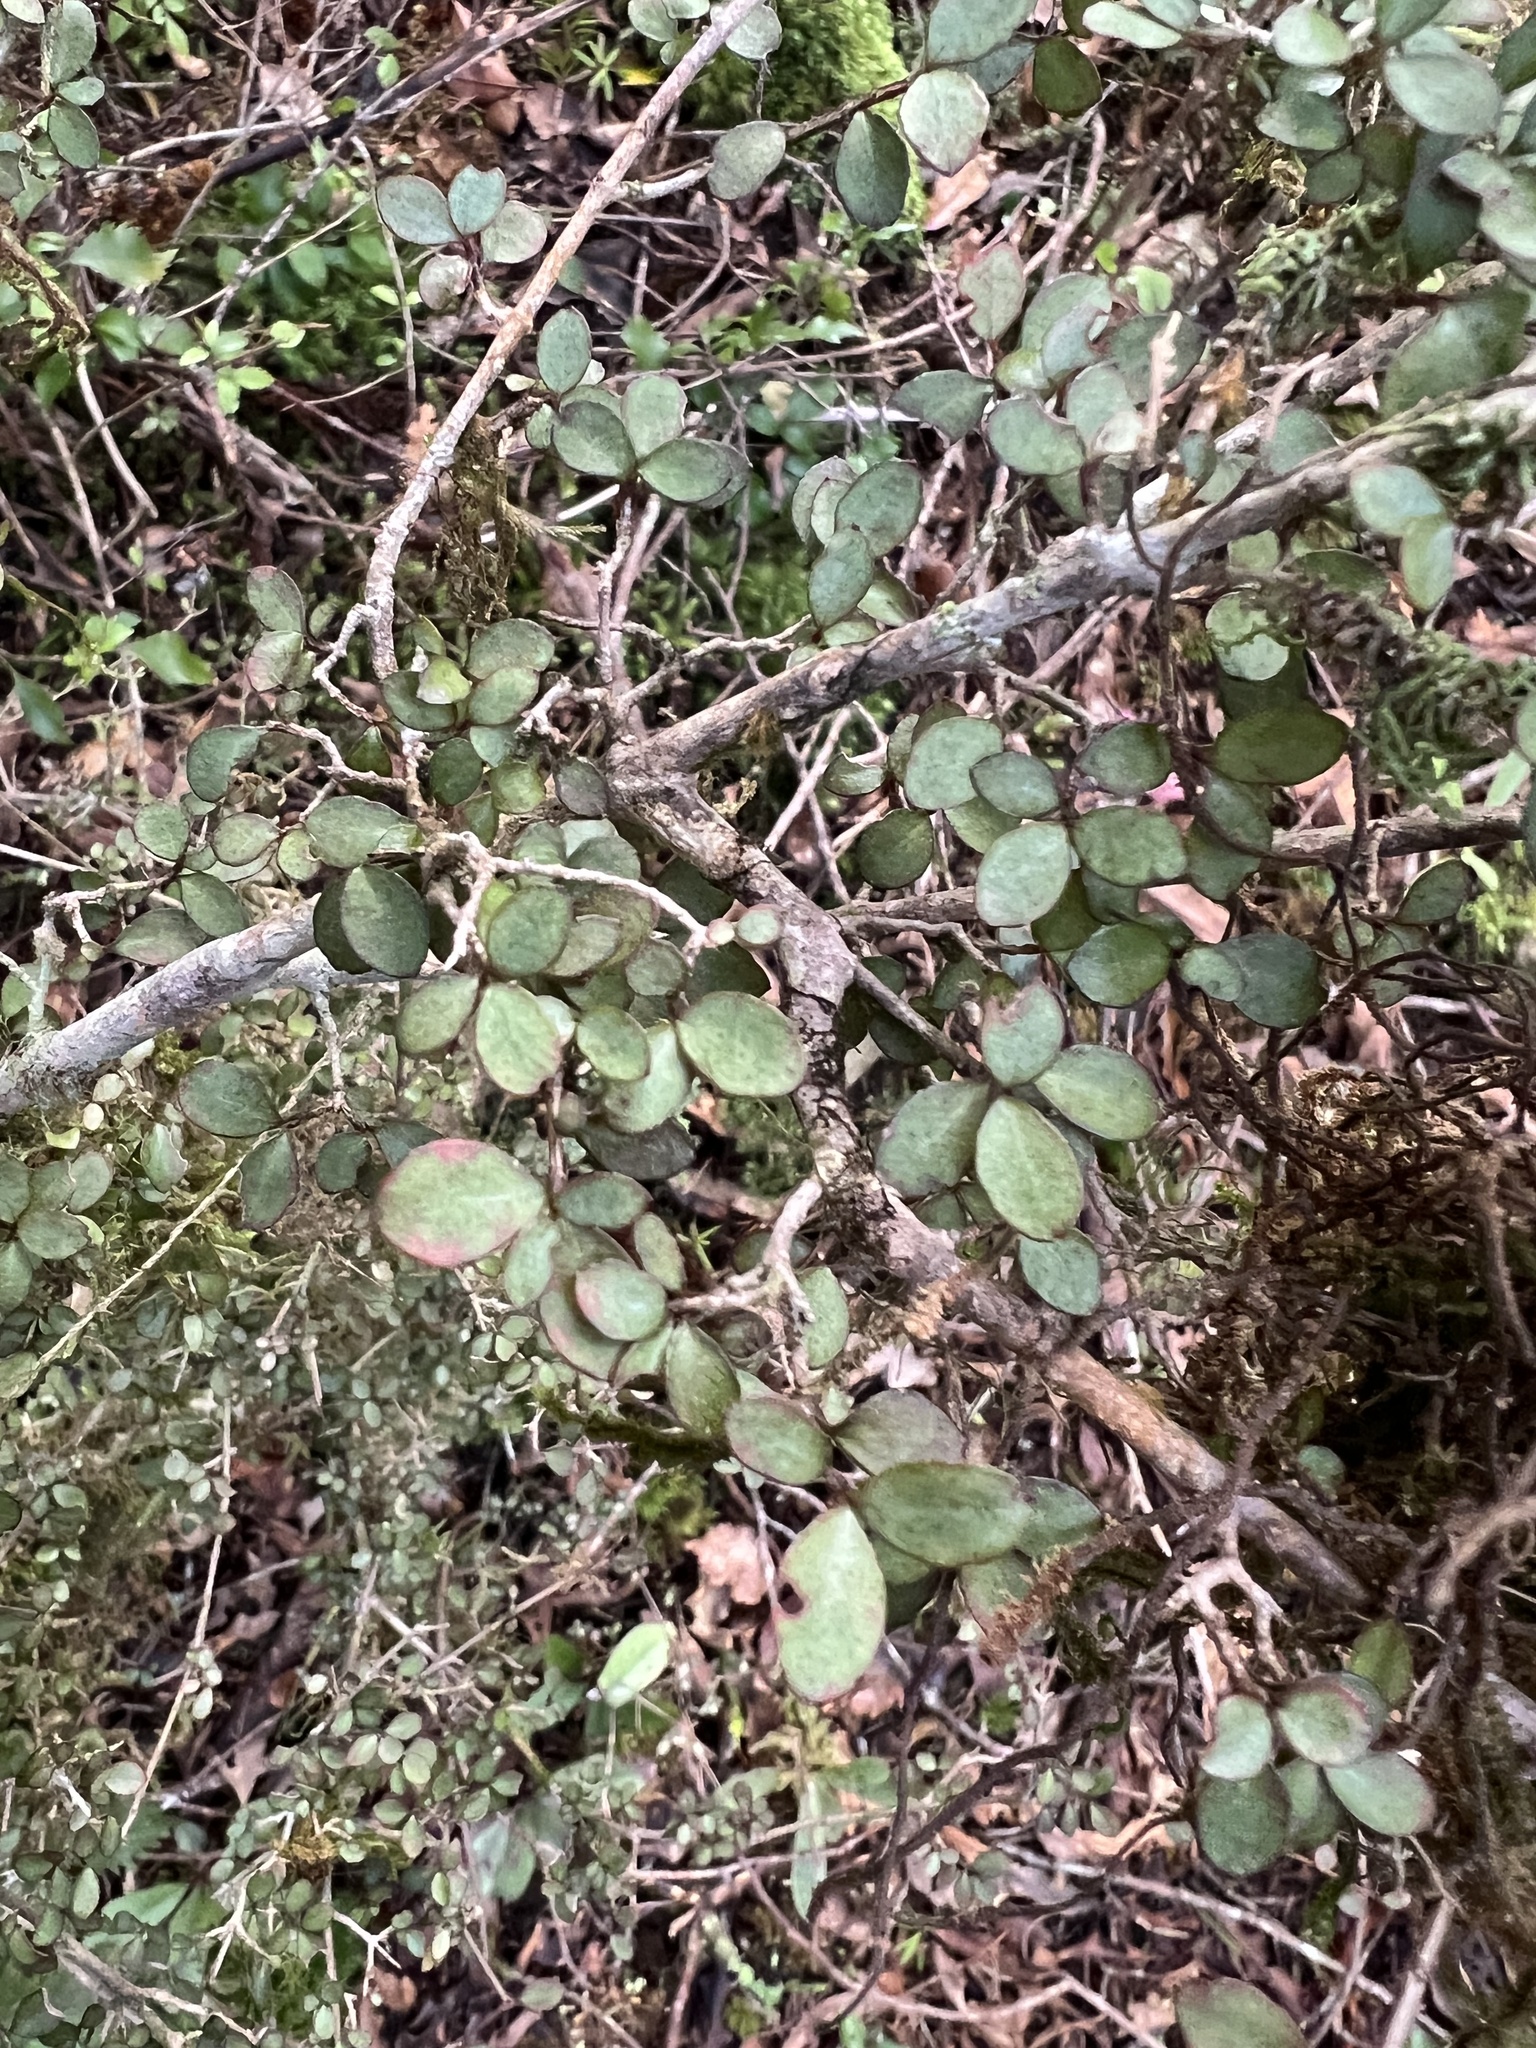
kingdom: Plantae
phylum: Tracheophyta
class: Magnoliopsida
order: Myrtales
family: Myrtaceae
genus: Neomyrtus
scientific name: Neomyrtus pedunculata
